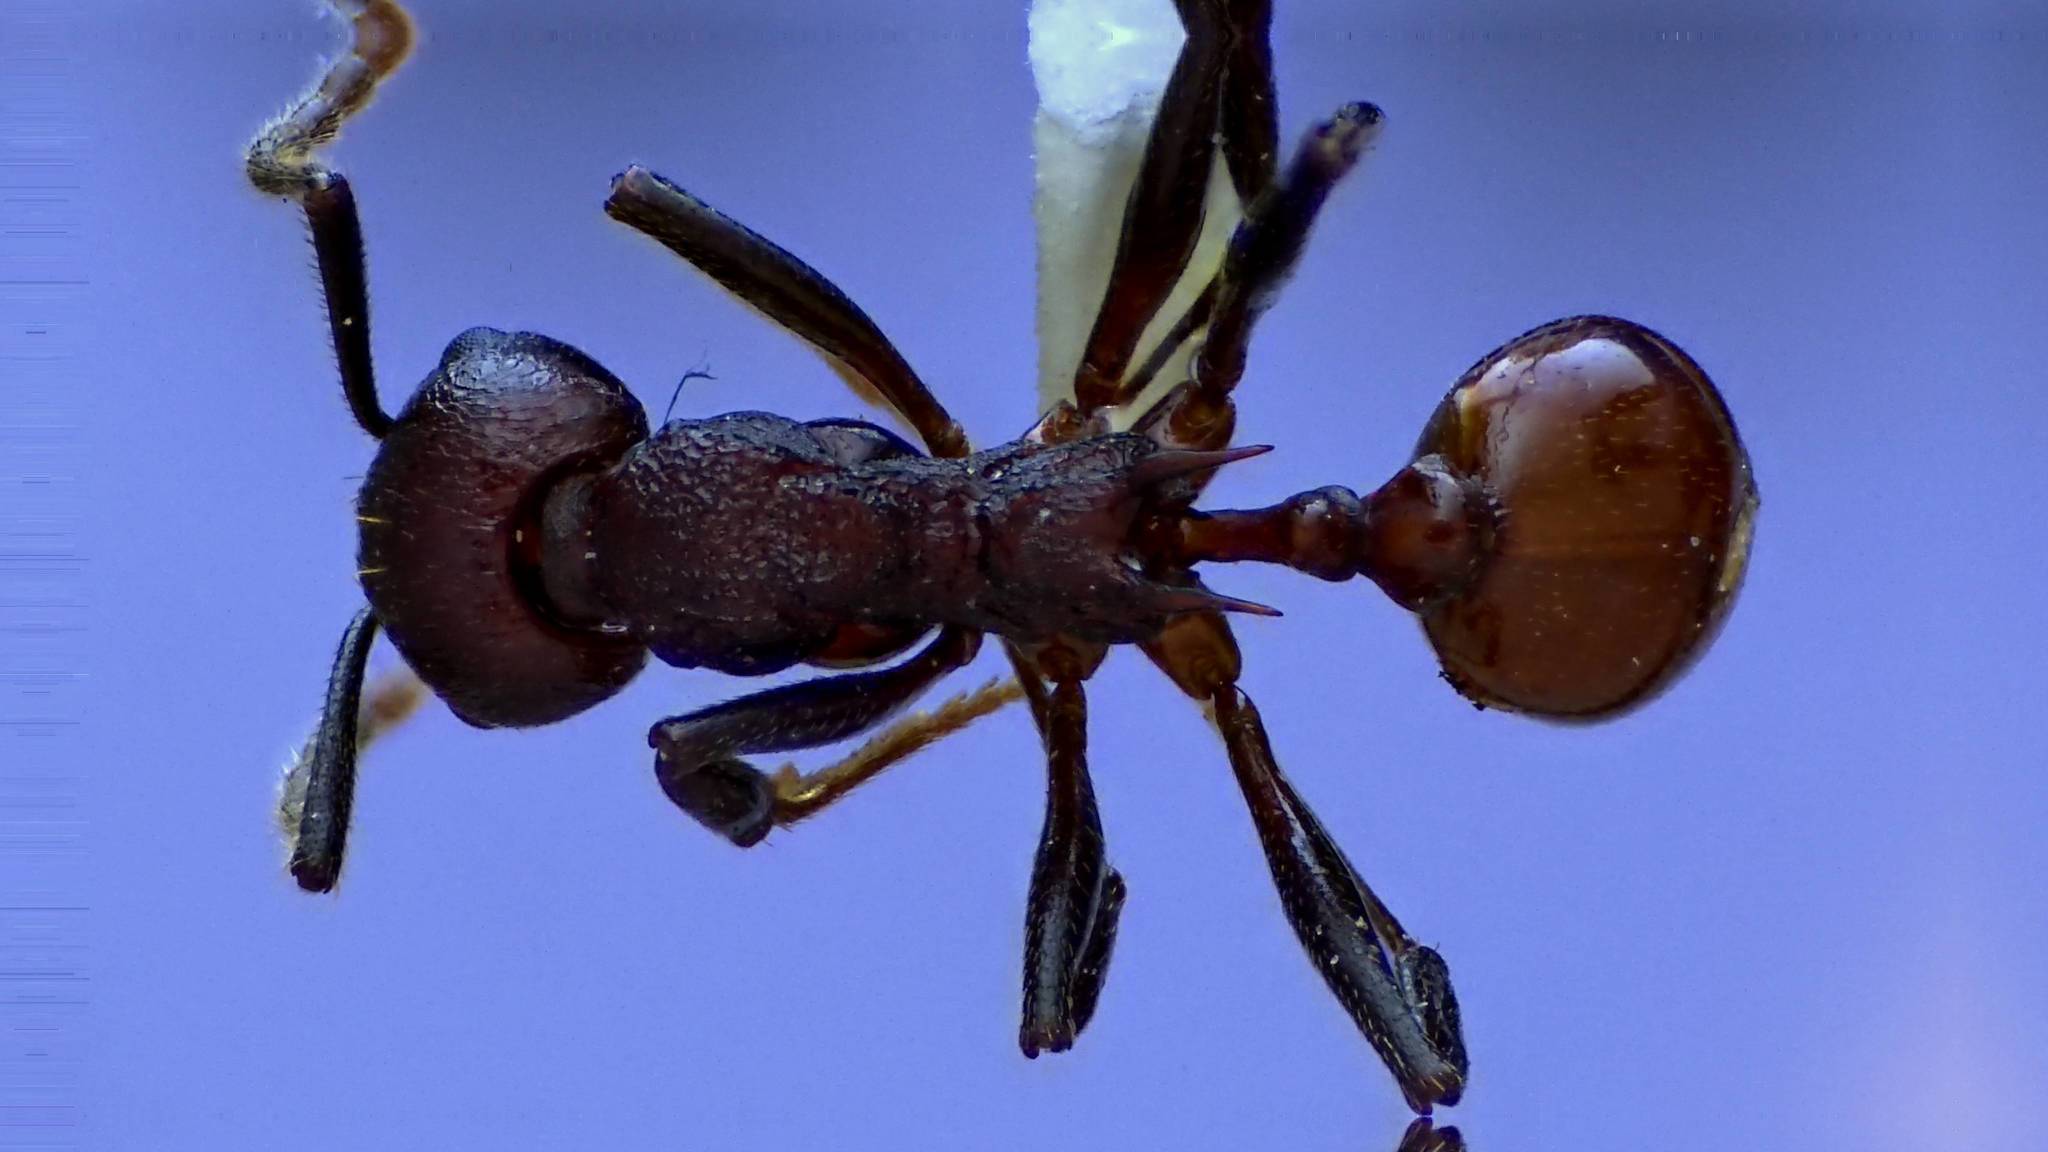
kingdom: Animalia
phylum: Arthropoda
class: Insecta
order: Hymenoptera
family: Formicidae
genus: Aphaenogaster
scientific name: Aphaenogaster tennesseensis
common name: Tennessee thread-waisted ant
